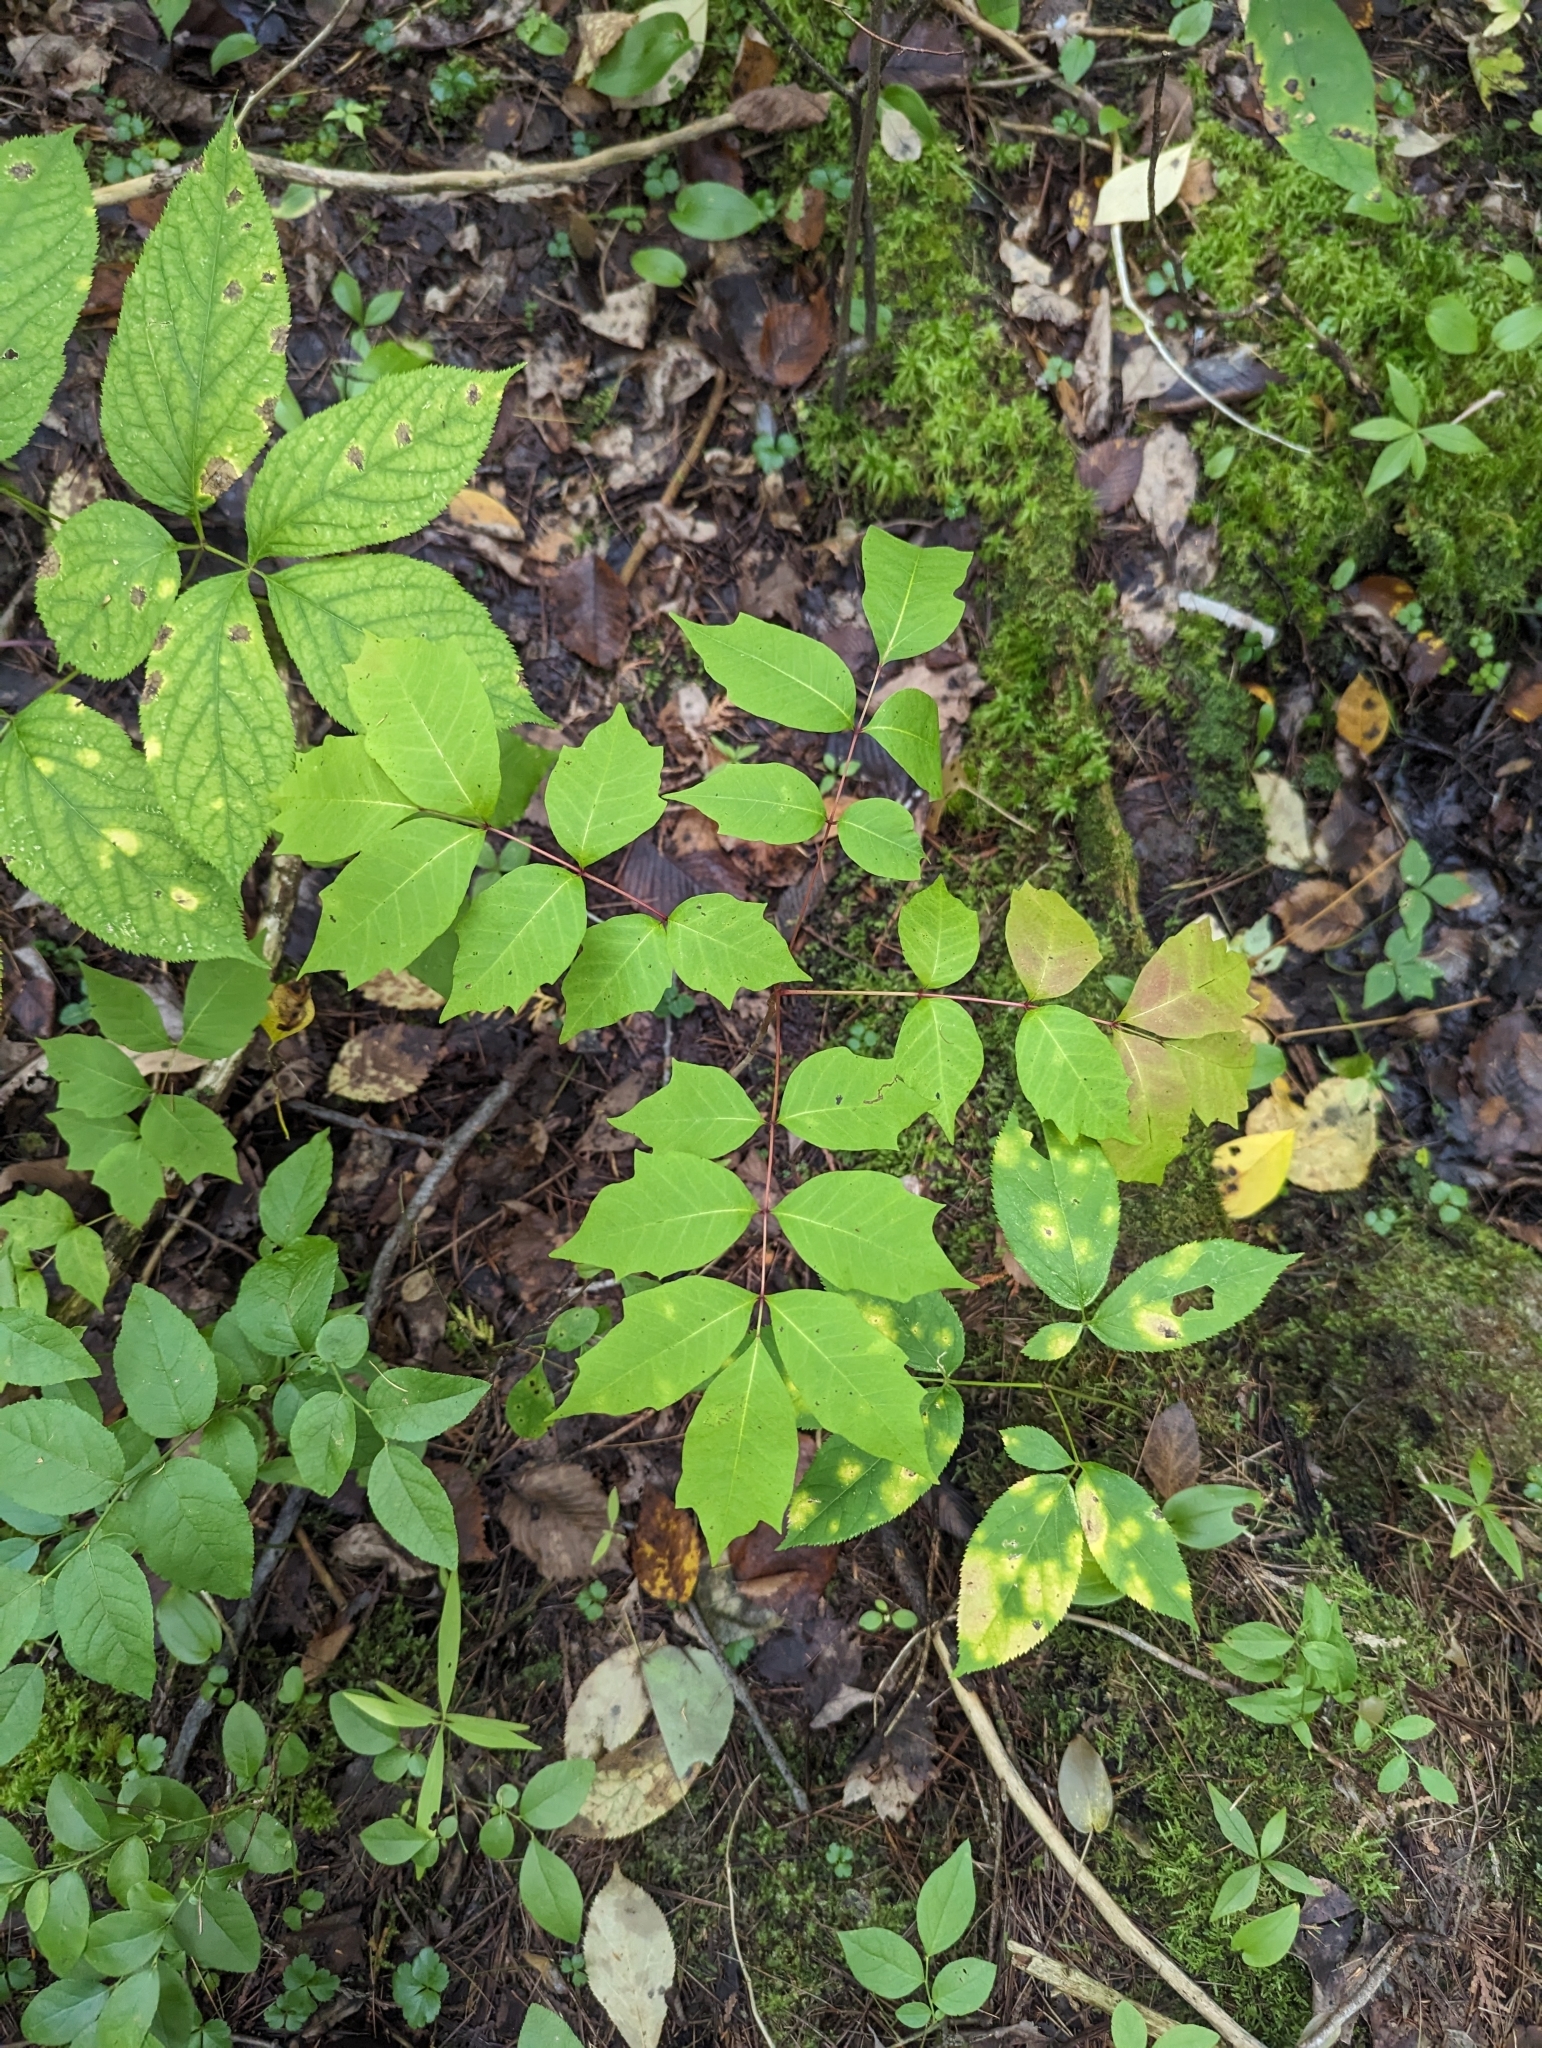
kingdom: Plantae
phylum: Tracheophyta
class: Magnoliopsida
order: Sapindales
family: Anacardiaceae
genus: Toxicodendron
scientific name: Toxicodendron vernix
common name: Poison sumac
